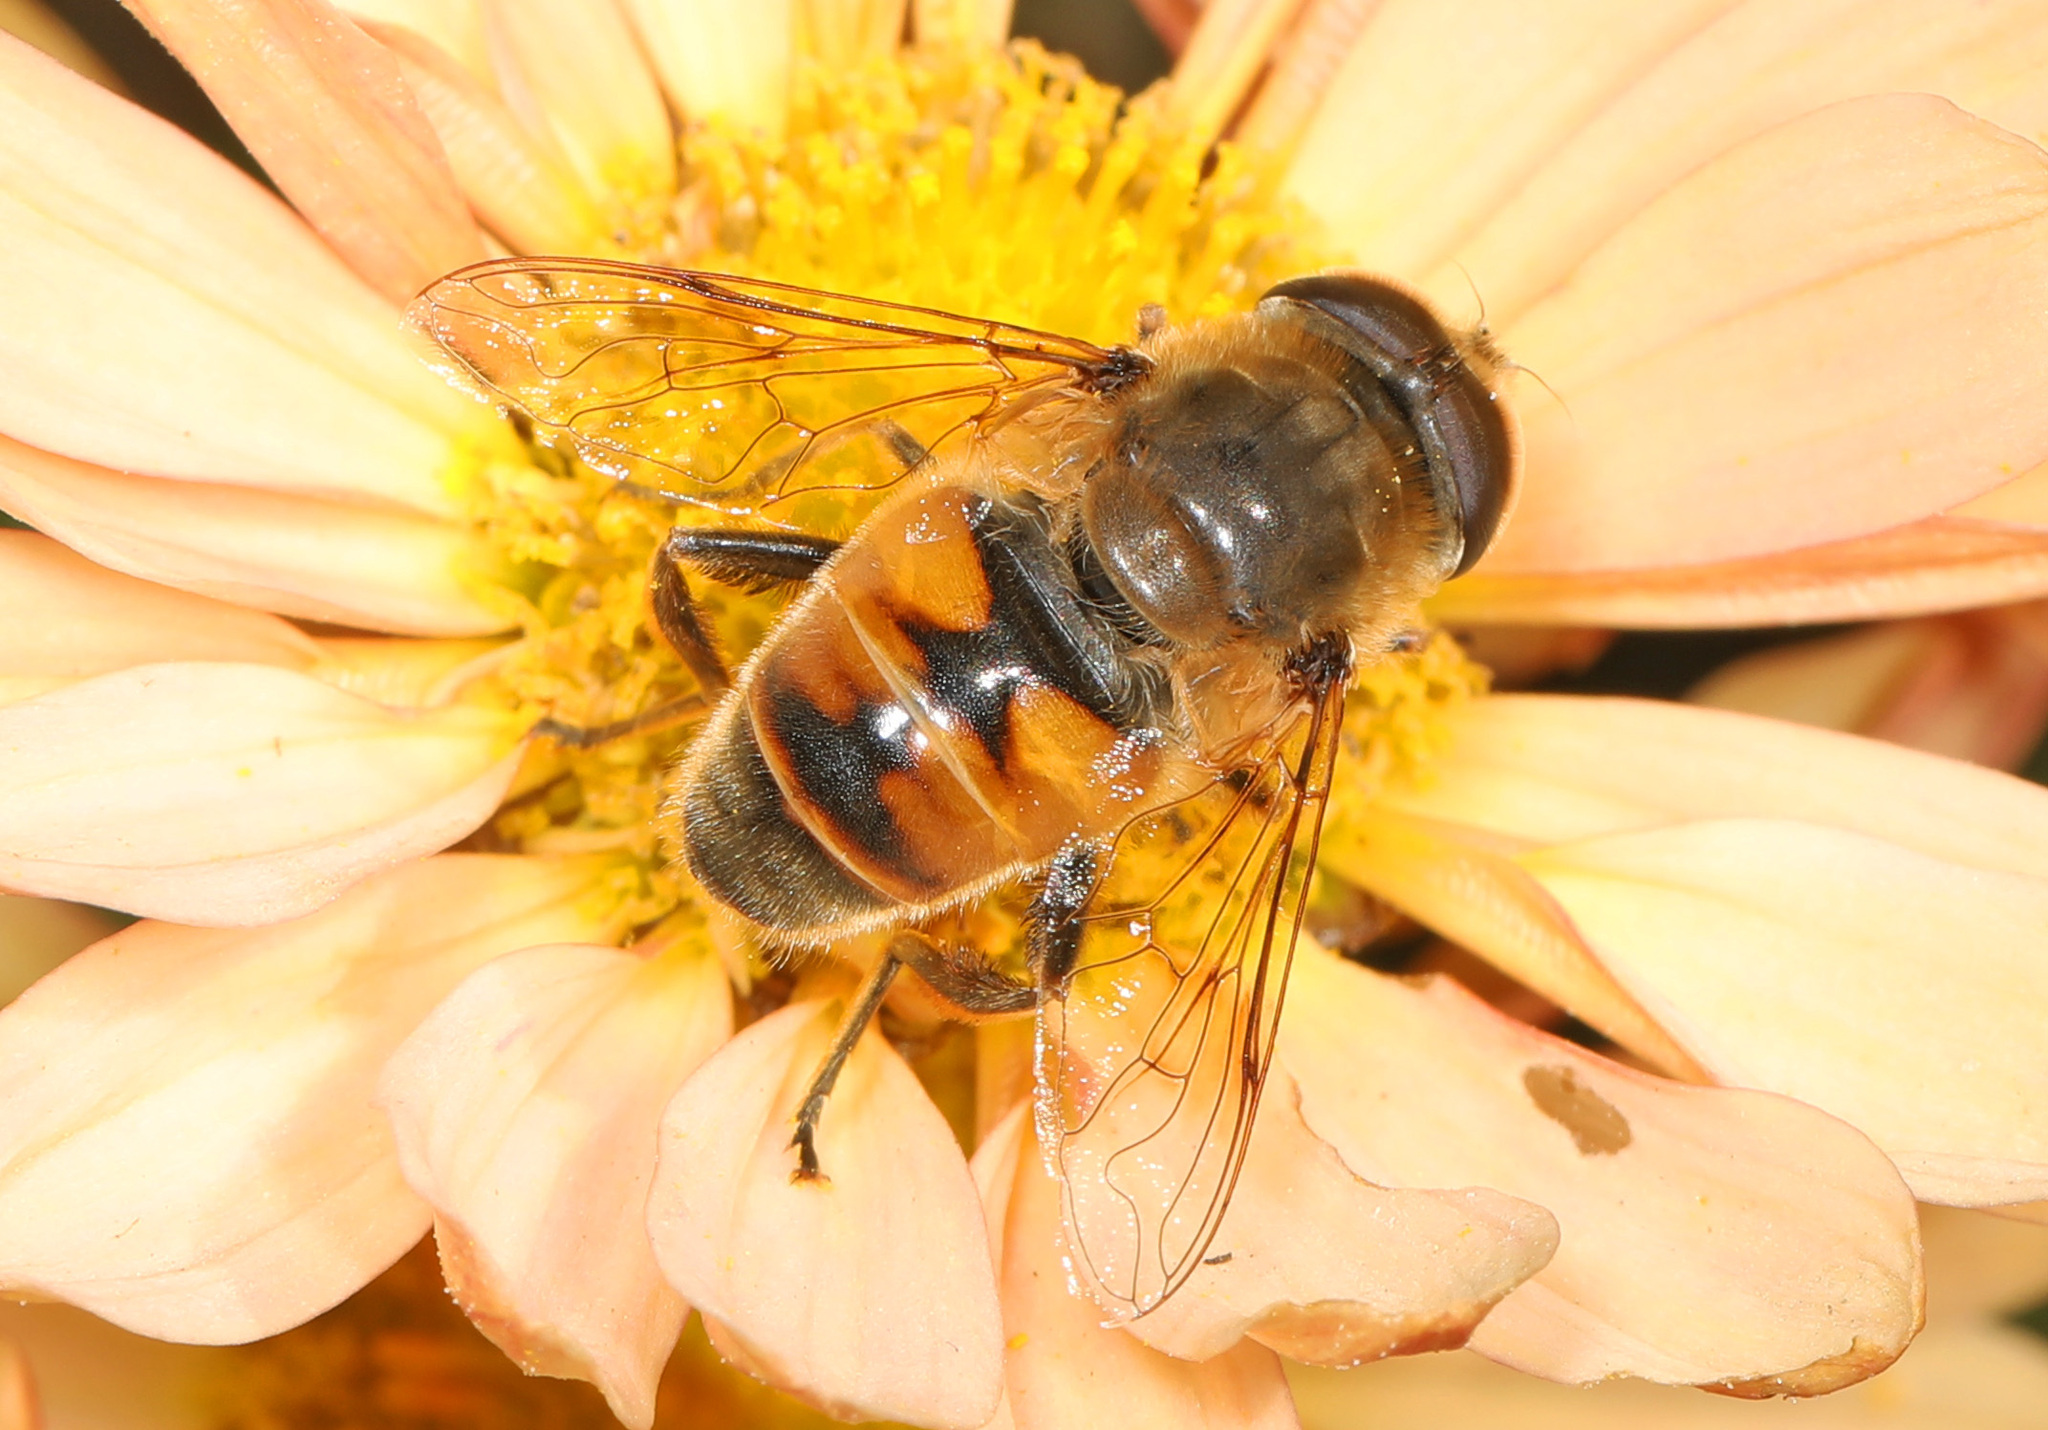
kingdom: Animalia
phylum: Arthropoda
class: Insecta
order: Diptera
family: Syrphidae
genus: Eristalis
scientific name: Eristalis tenax
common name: Drone fly
